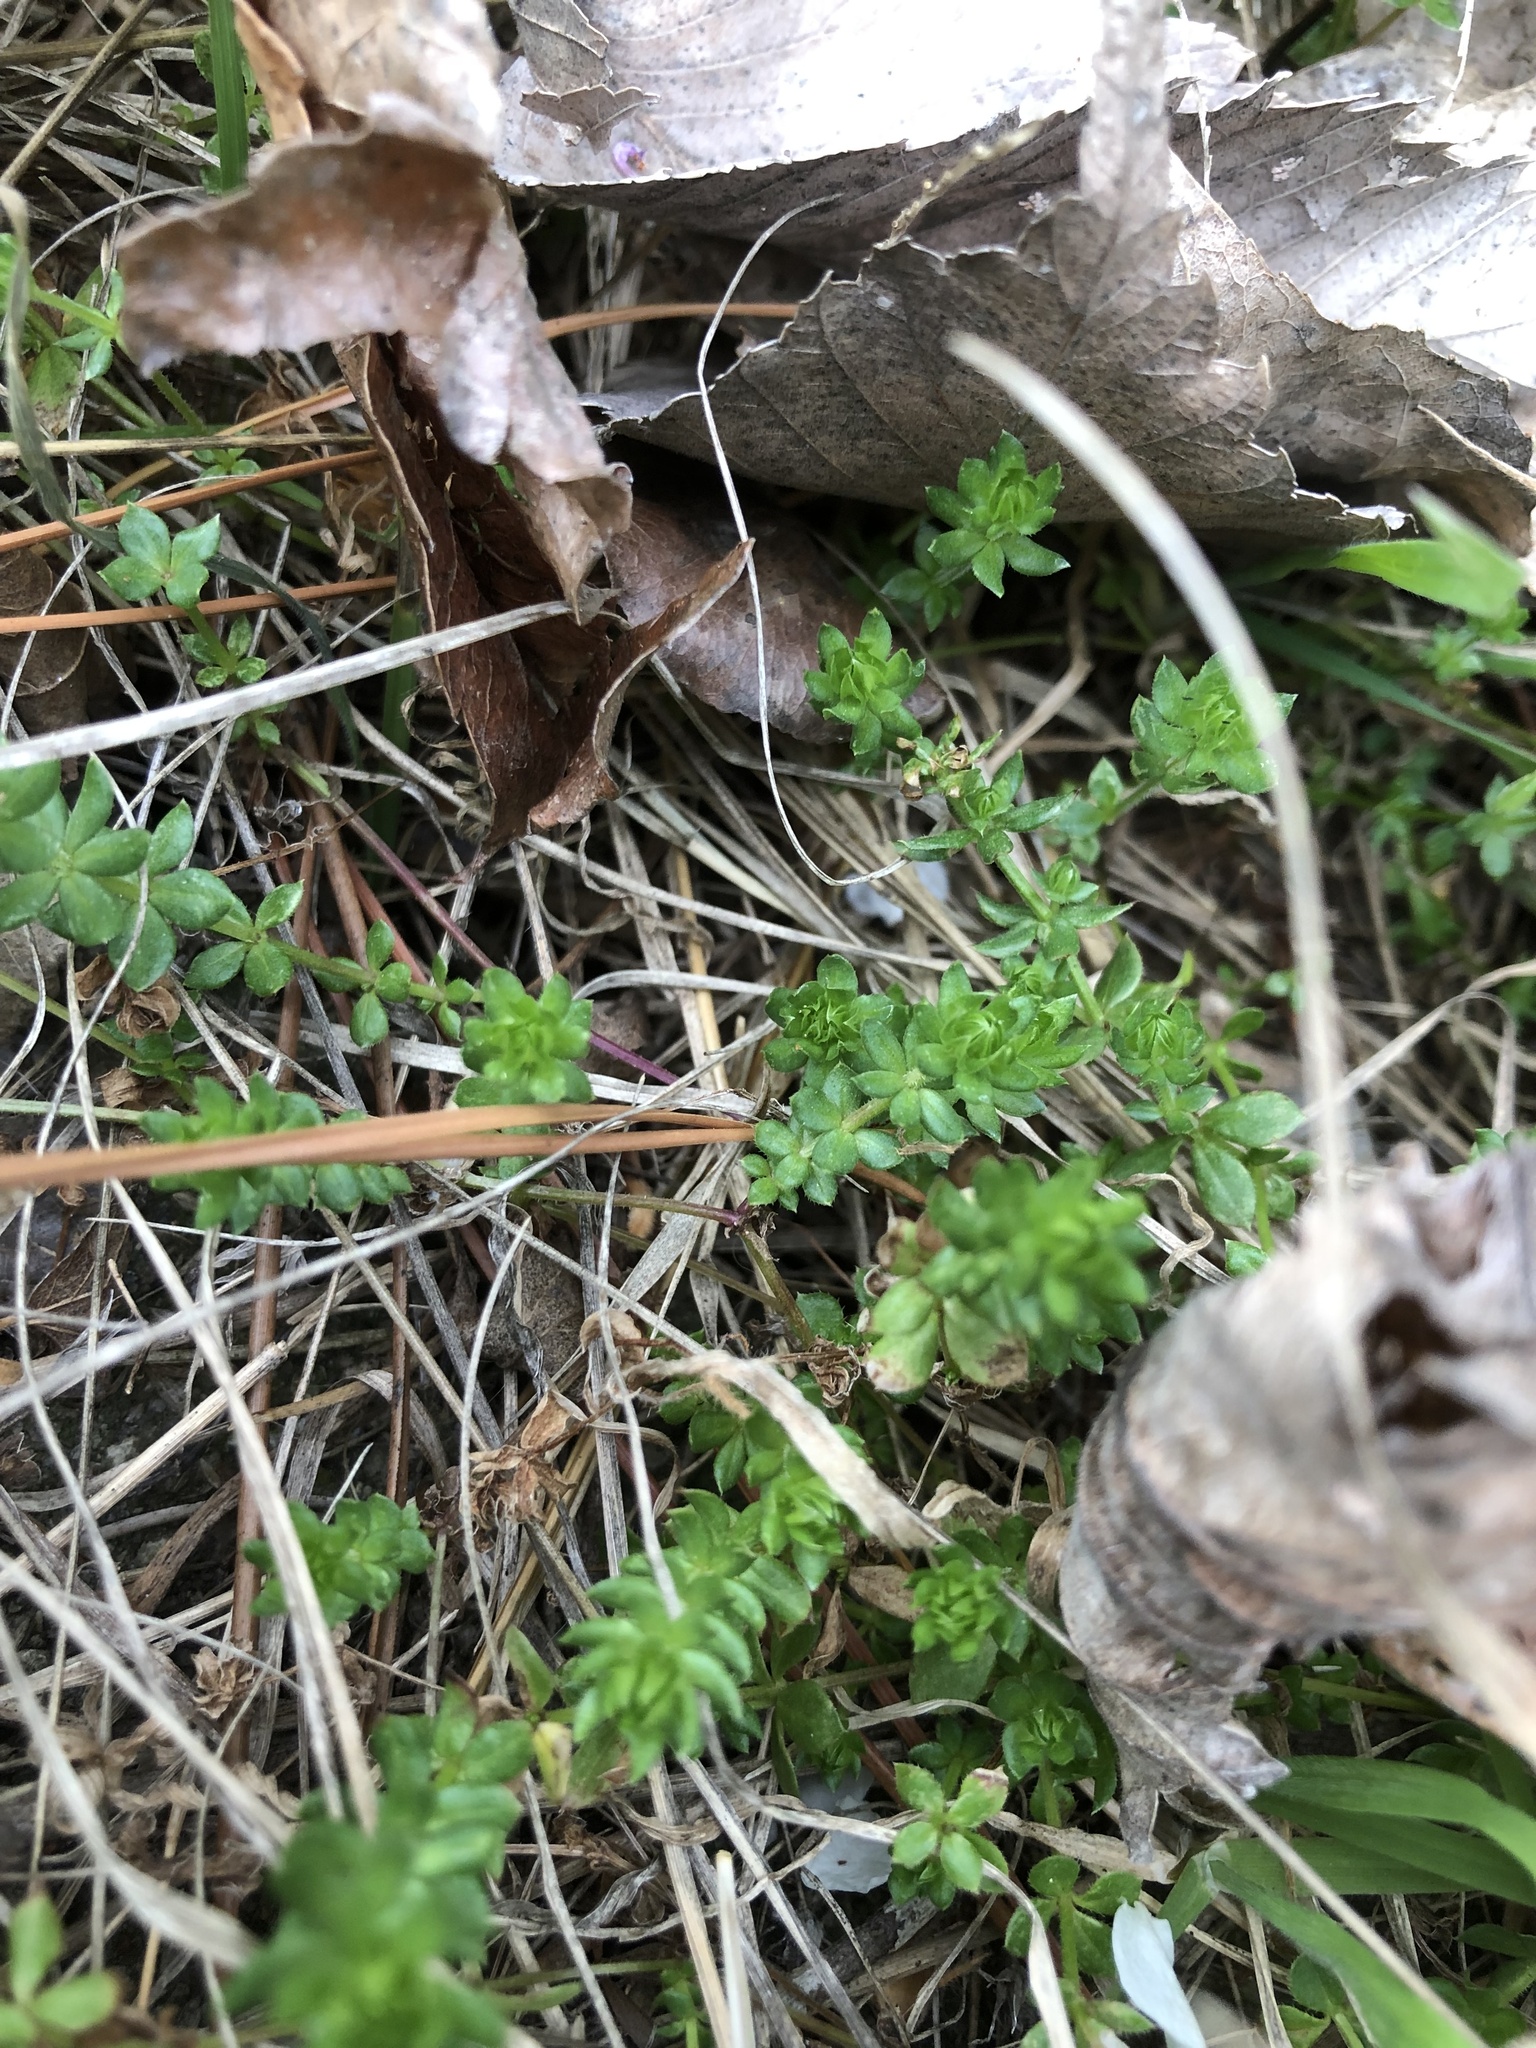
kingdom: Plantae
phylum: Tracheophyta
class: Magnoliopsida
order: Gentianales
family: Rubiaceae
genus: Sherardia
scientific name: Sherardia arvensis
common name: Field madder
